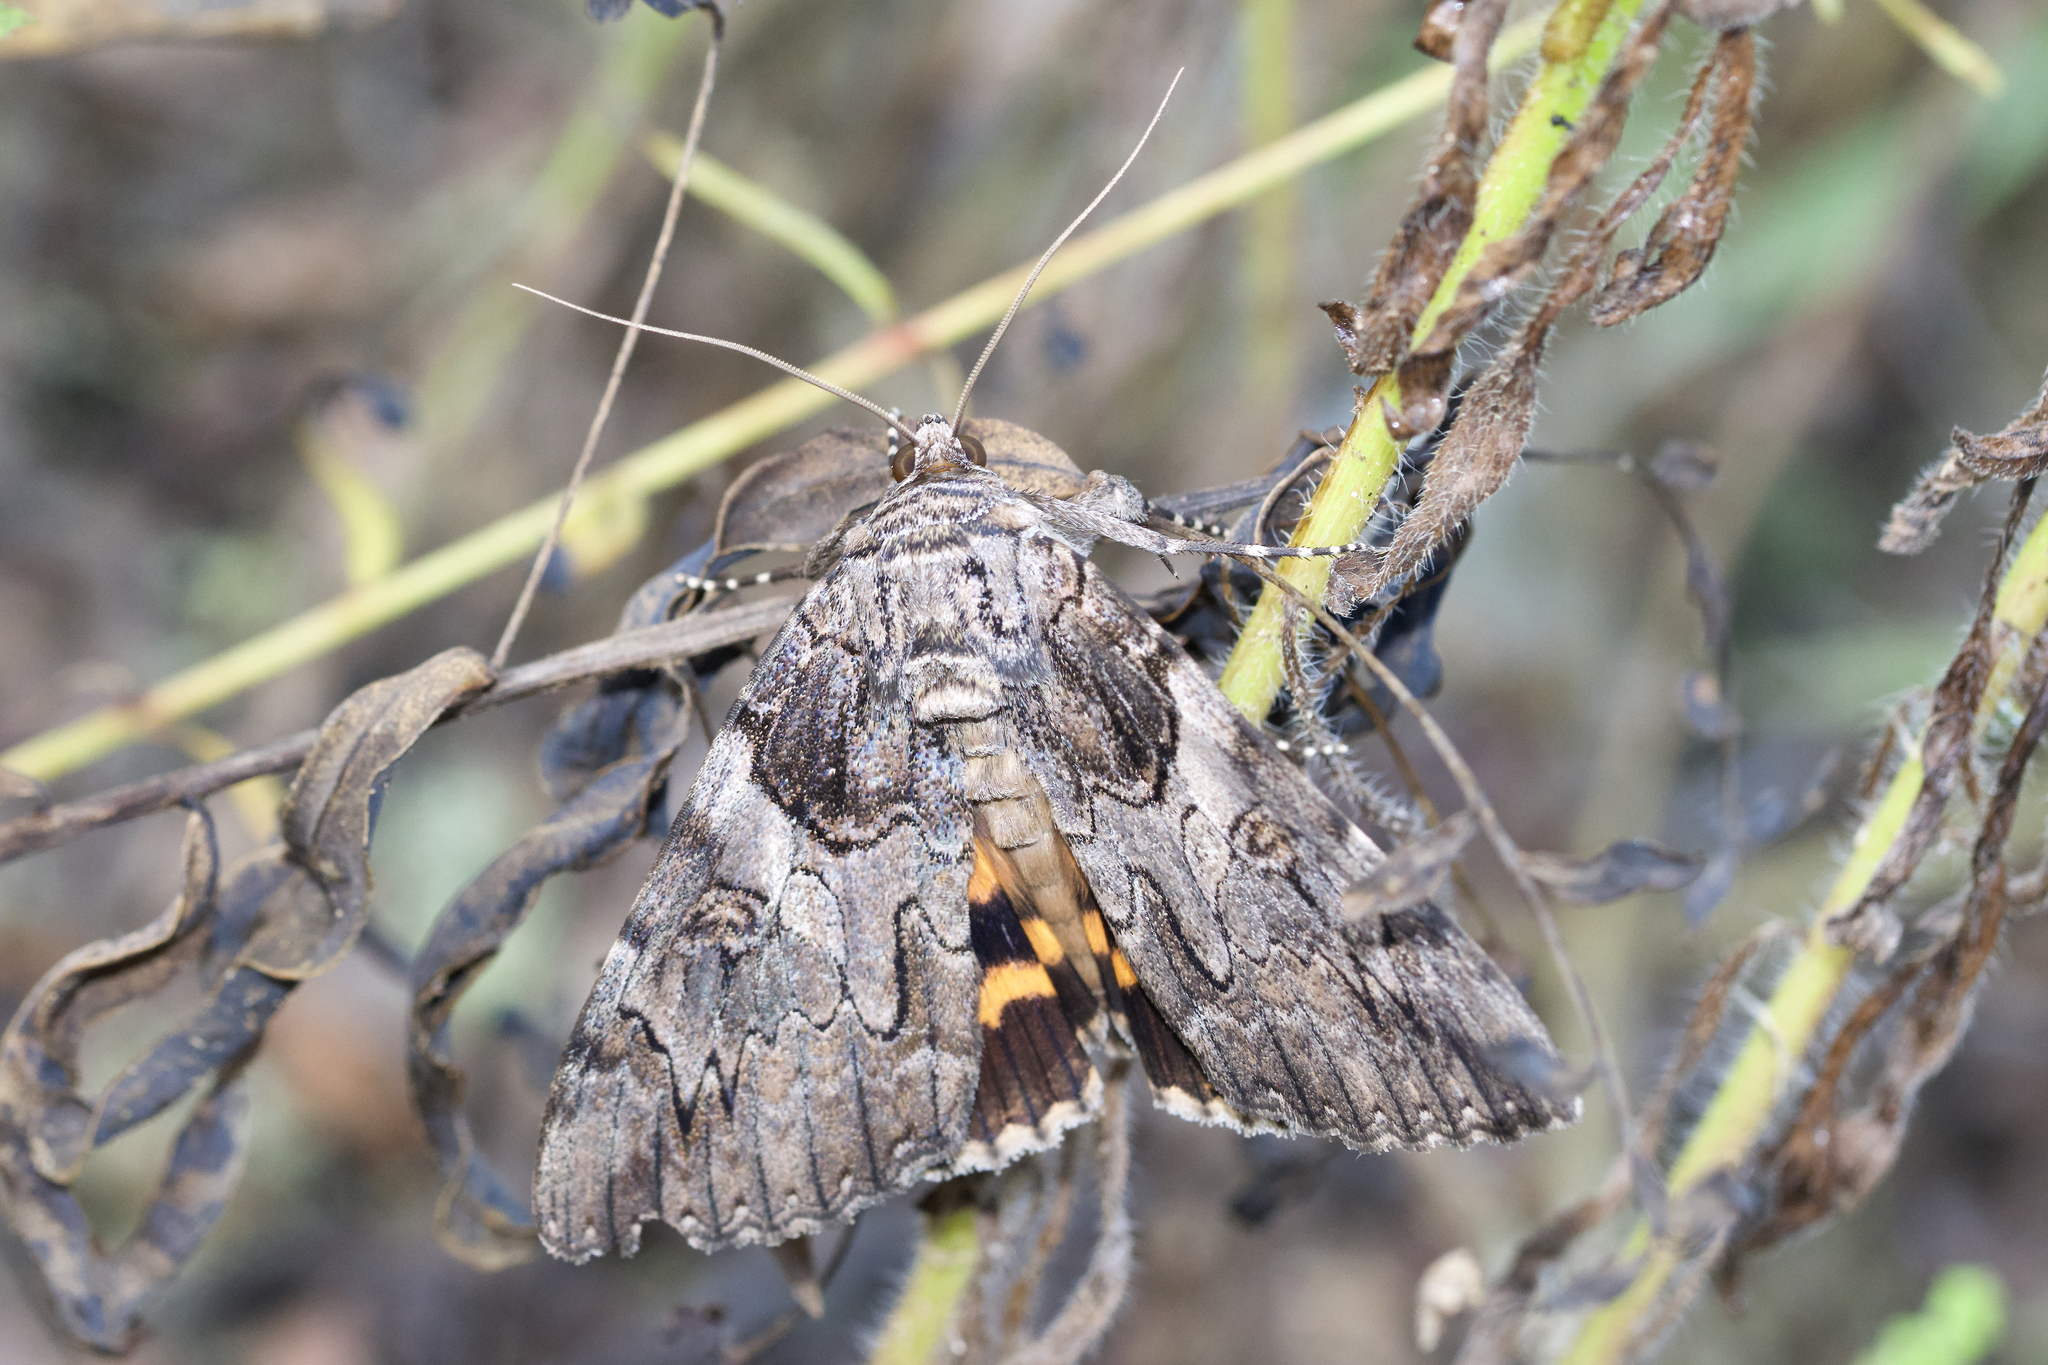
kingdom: Animalia
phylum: Arthropoda
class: Insecta
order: Lepidoptera
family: Erebidae
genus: Catocala
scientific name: Catocala piatrix
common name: The penitent underwing
